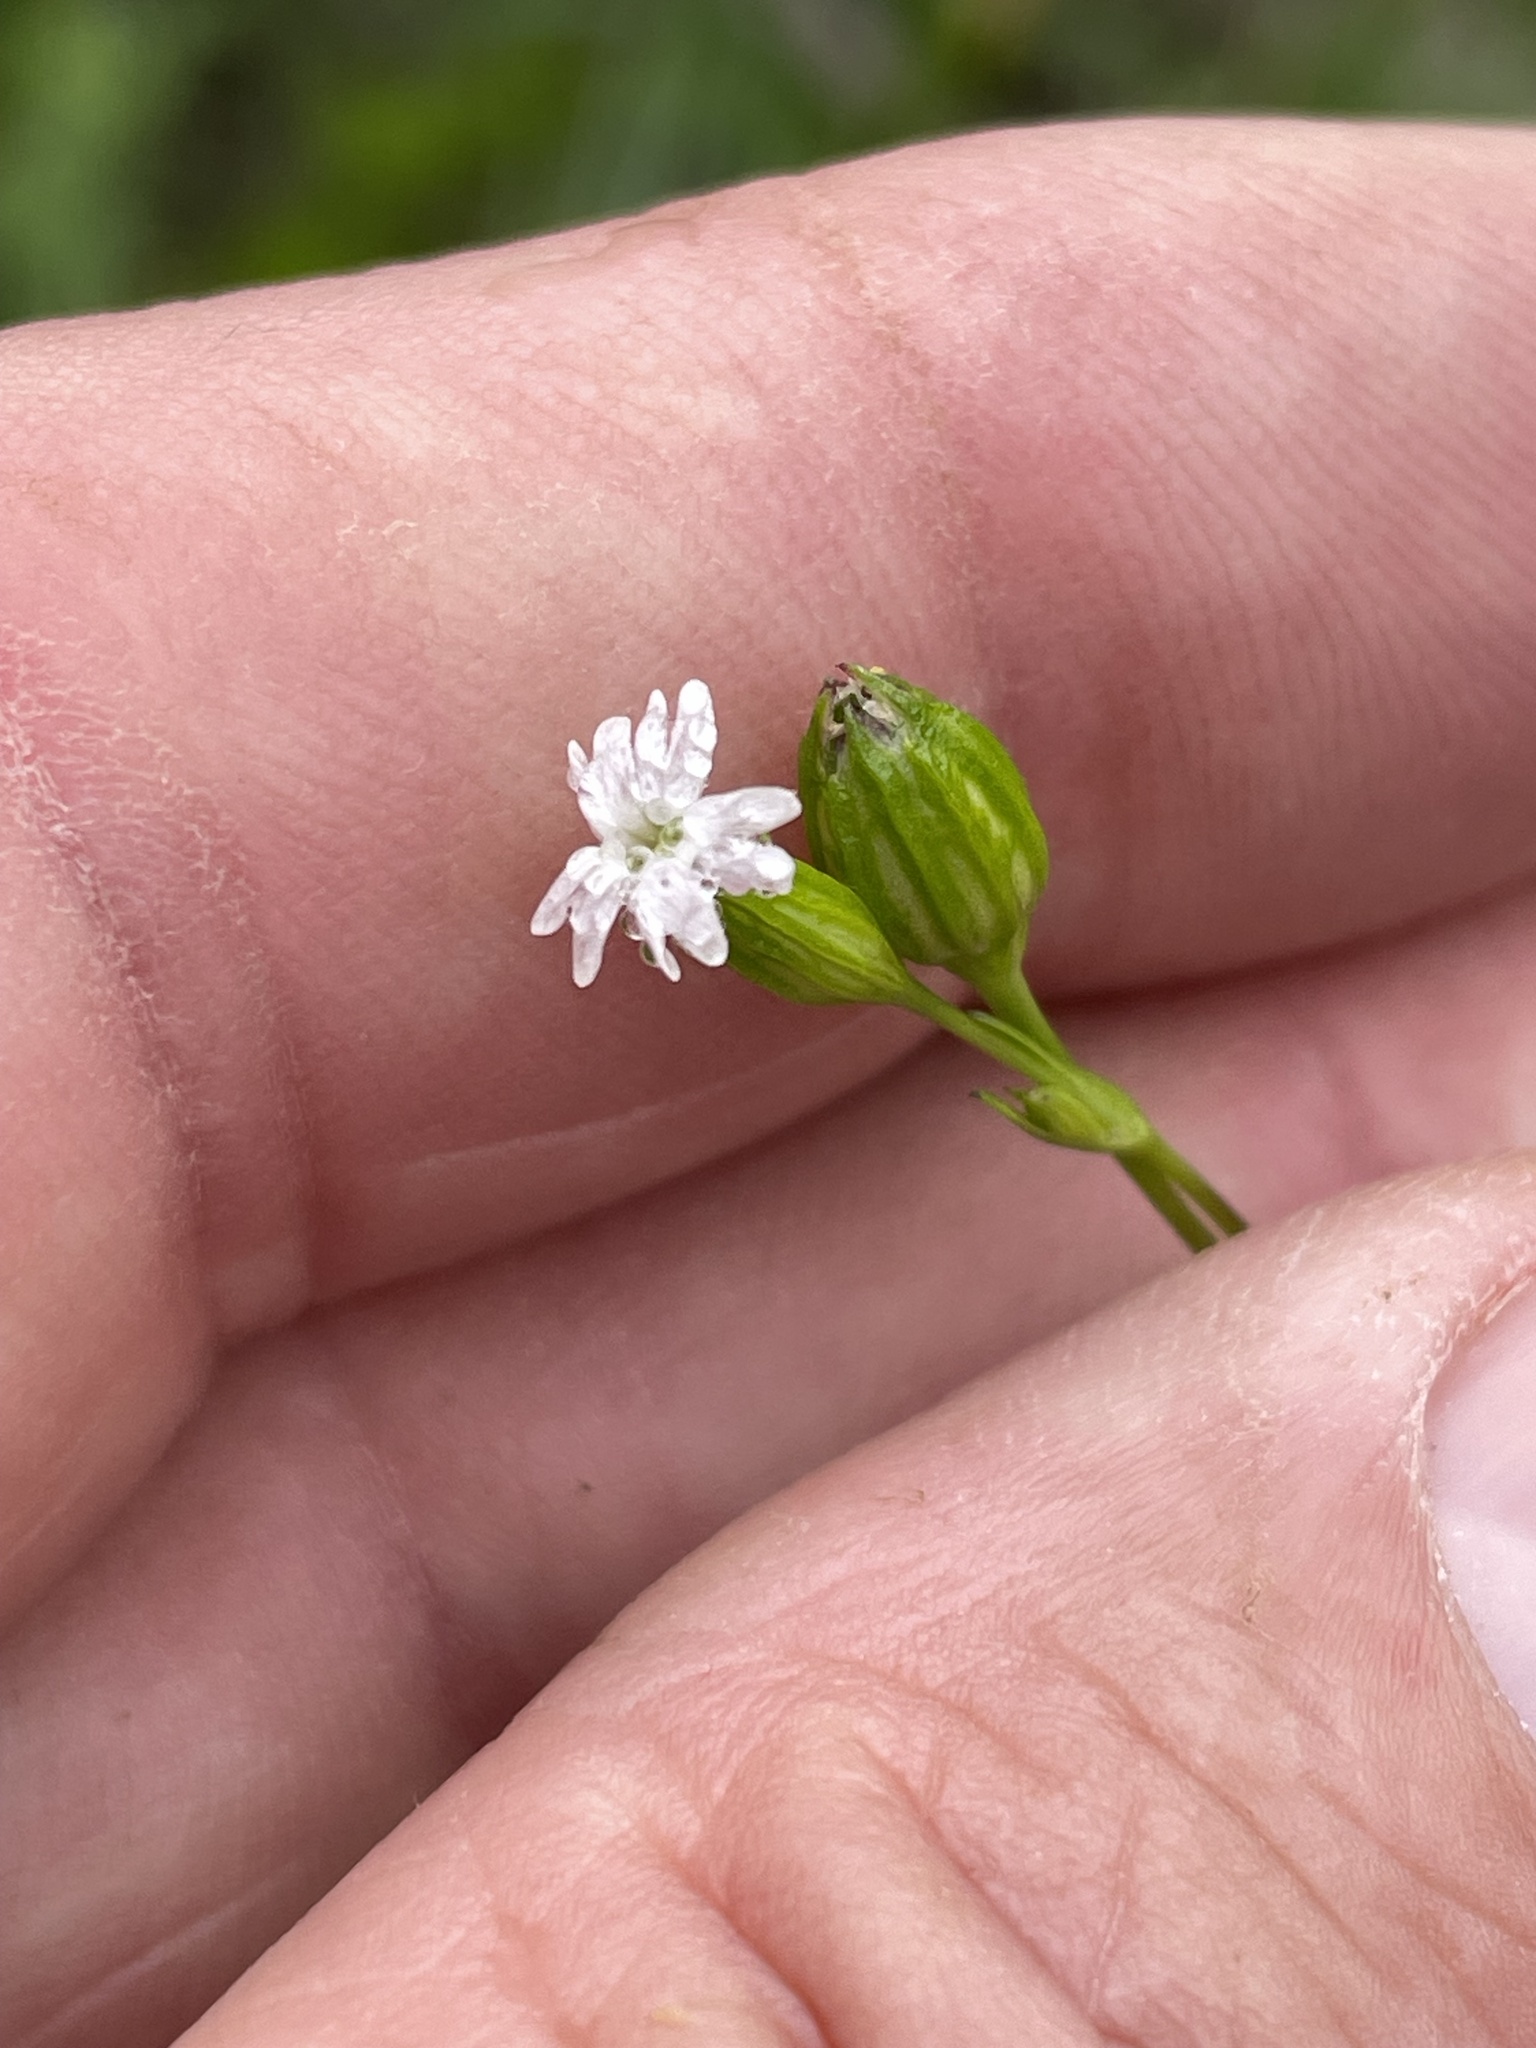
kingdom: Plantae
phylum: Tracheophyta
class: Magnoliopsida
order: Caryophyllales
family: Caryophyllaceae
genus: Silene
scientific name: Silene antirrhina
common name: Sleepy catchfly
